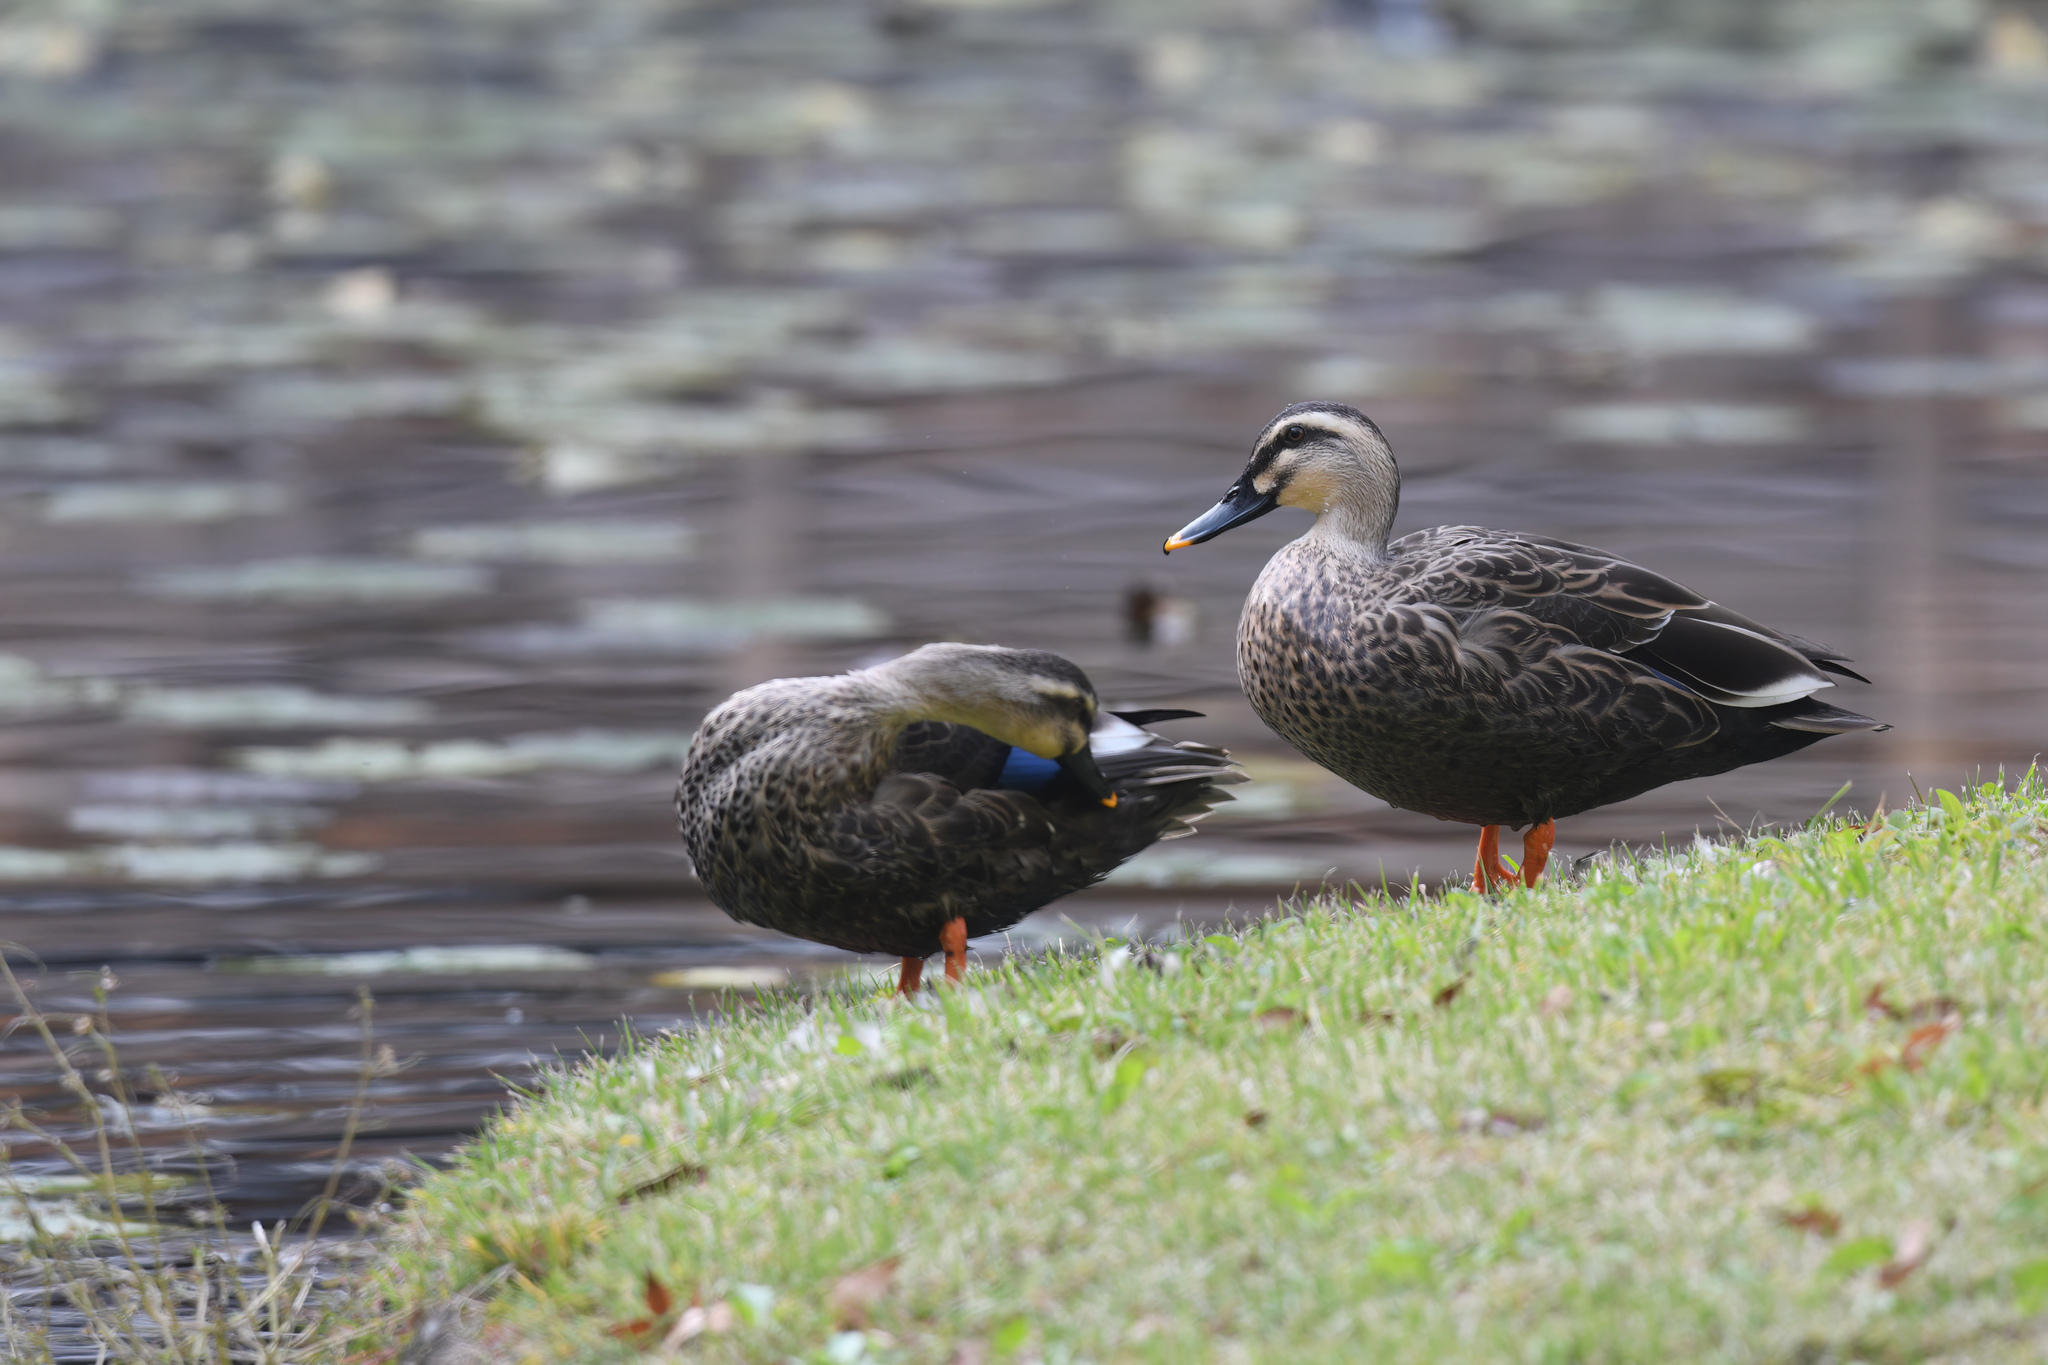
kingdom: Animalia
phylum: Chordata
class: Aves
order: Anseriformes
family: Anatidae
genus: Anas
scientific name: Anas zonorhyncha
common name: Eastern spot-billed duck
